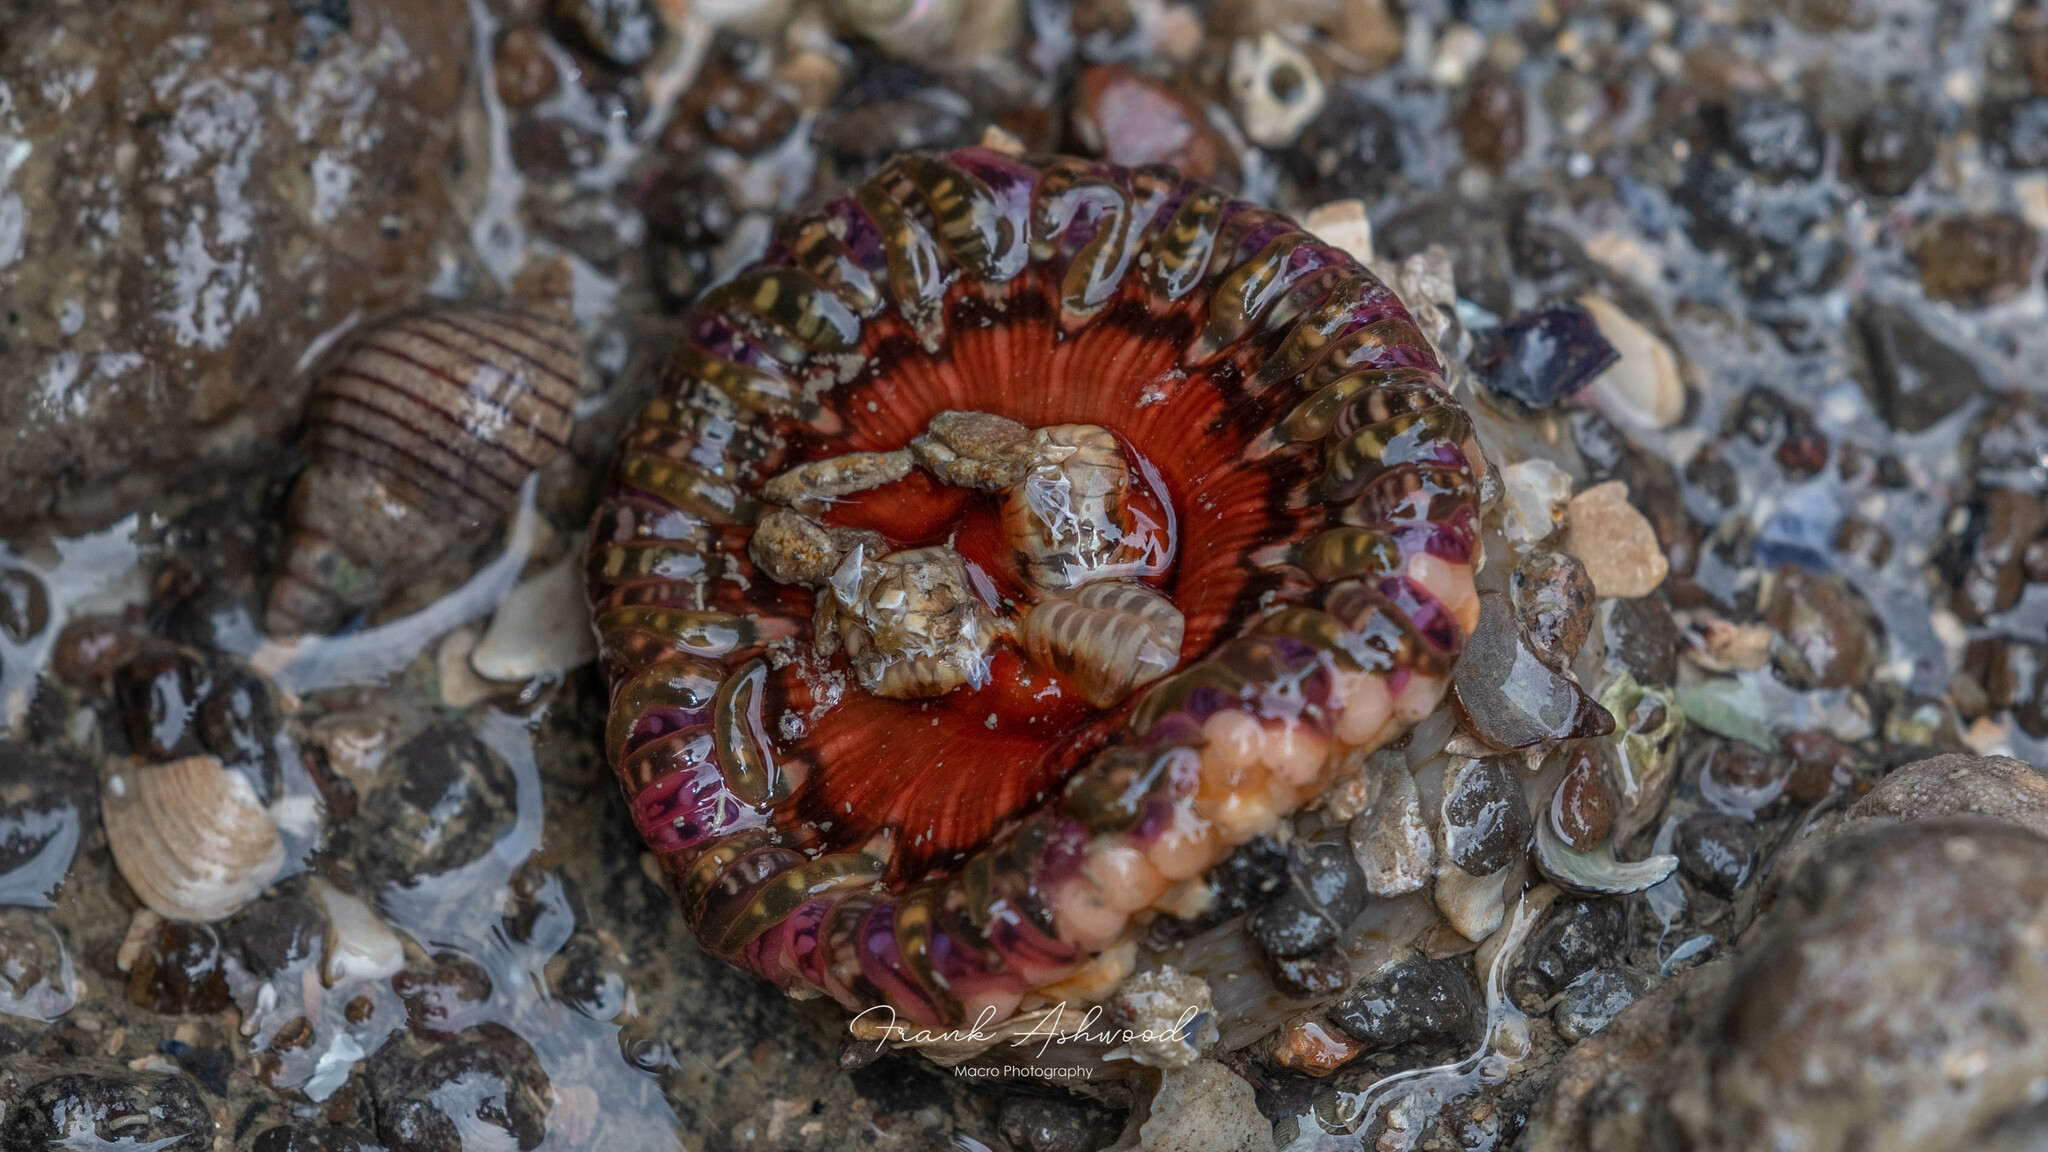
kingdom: Animalia
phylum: Cnidaria
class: Anthozoa
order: Actiniaria
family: Actiniidae
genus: Oulactis
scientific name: Oulactis muscosa
